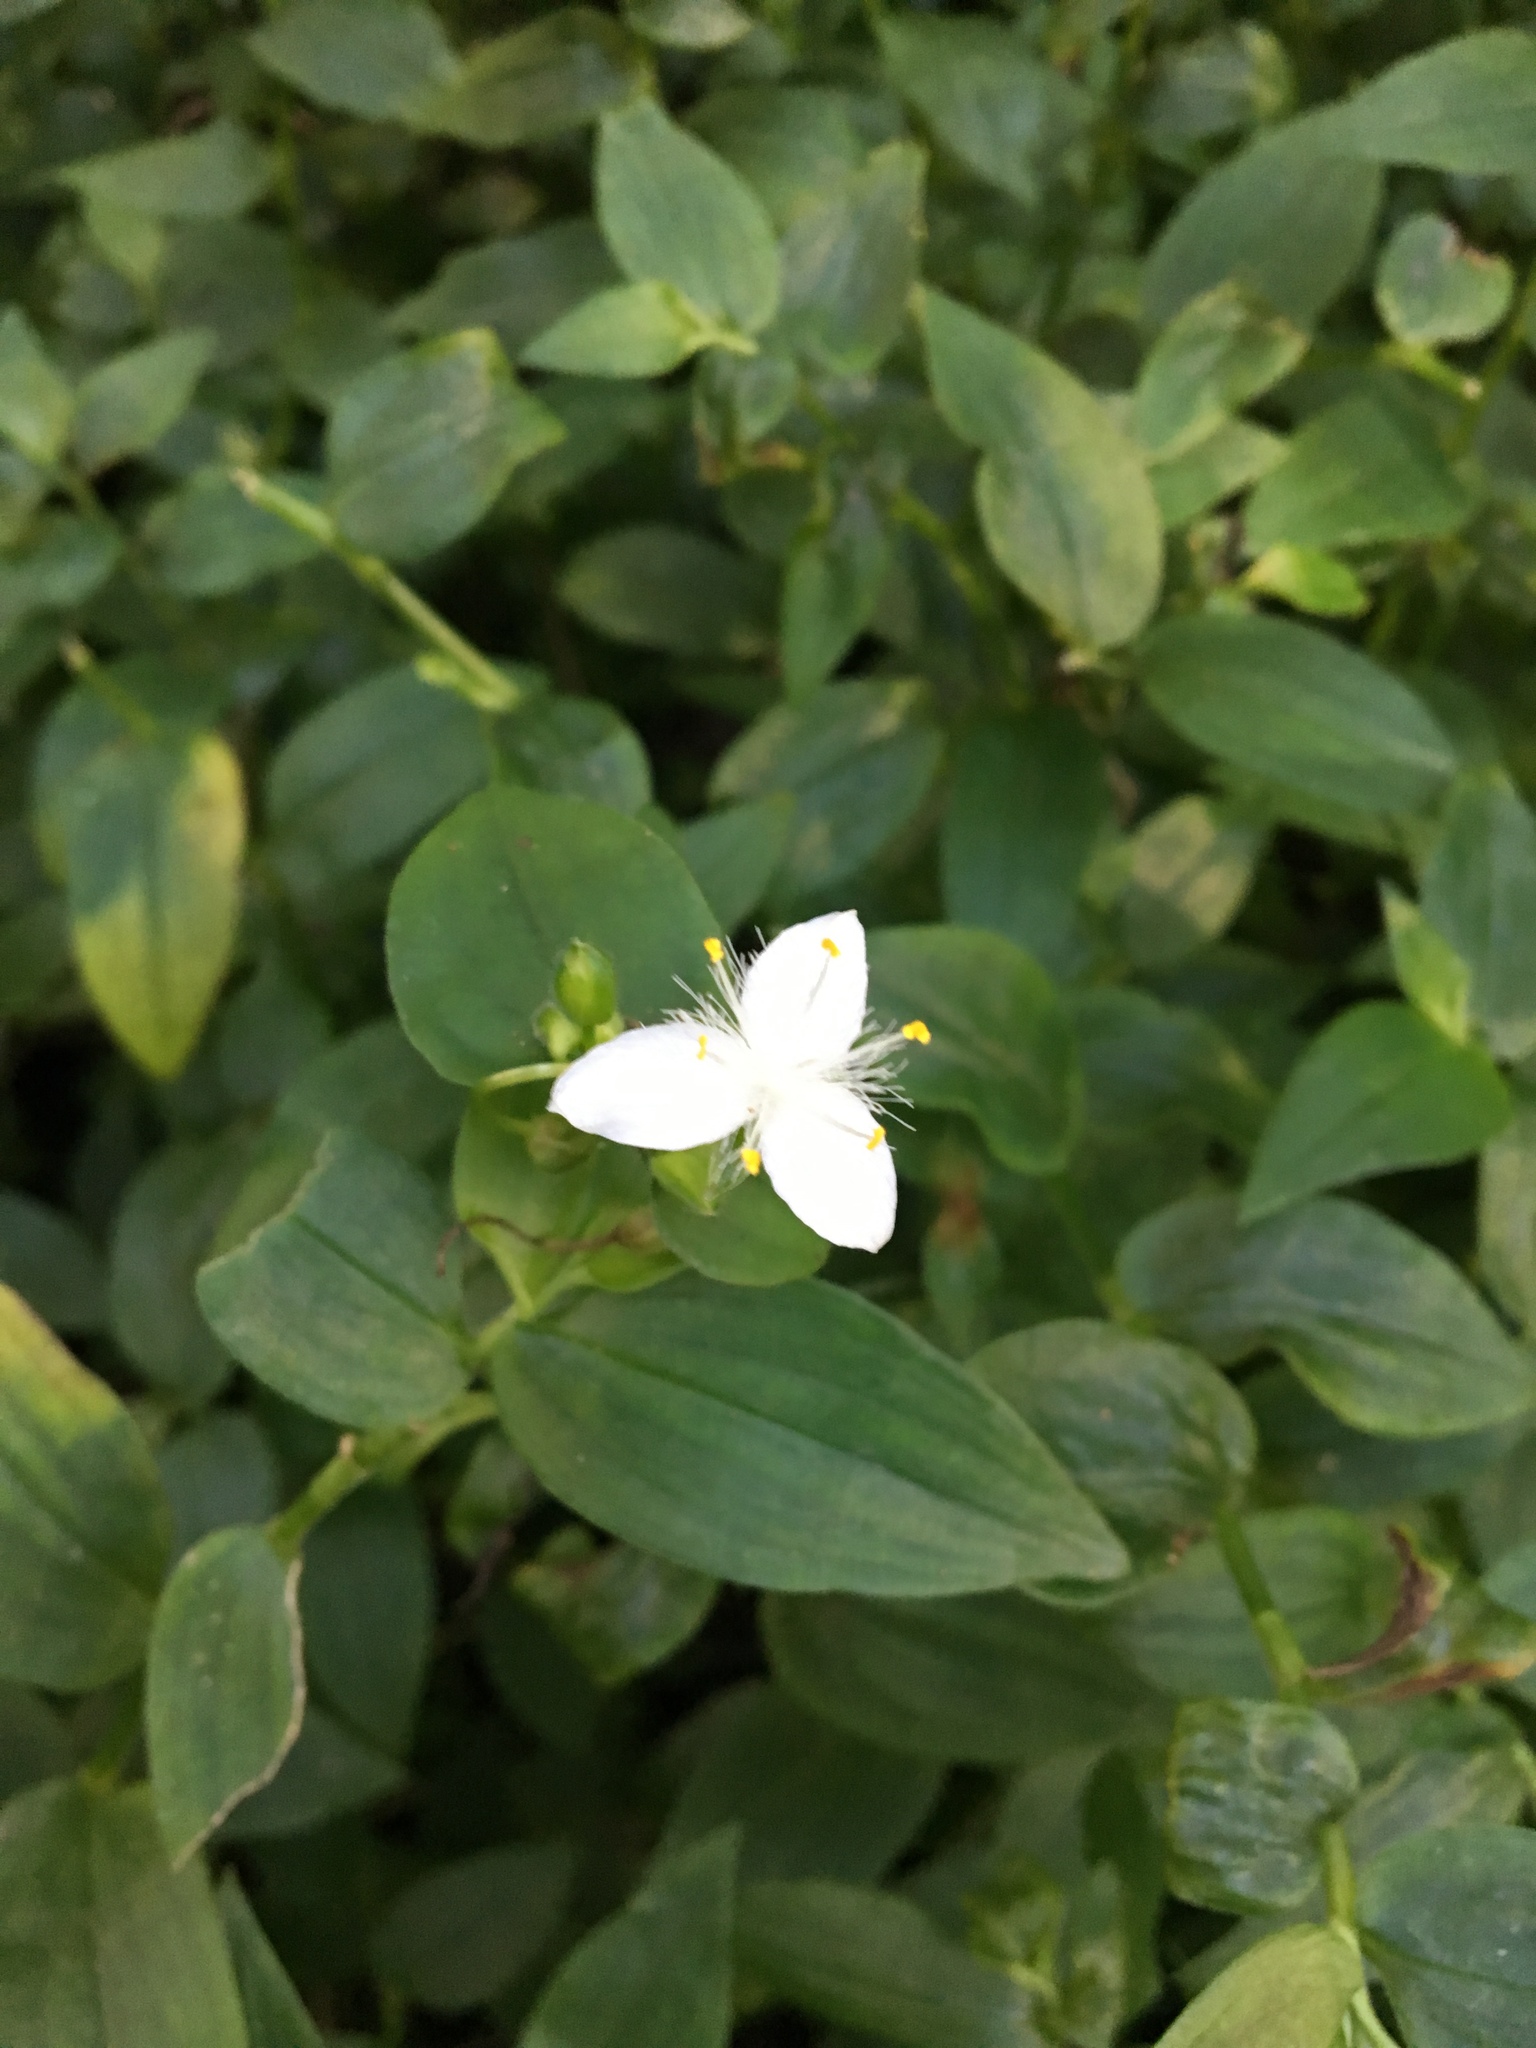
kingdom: Plantae
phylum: Tracheophyta
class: Liliopsida
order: Commelinales
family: Commelinaceae
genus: Tradescantia
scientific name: Tradescantia fluminensis
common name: Wandering-jew
